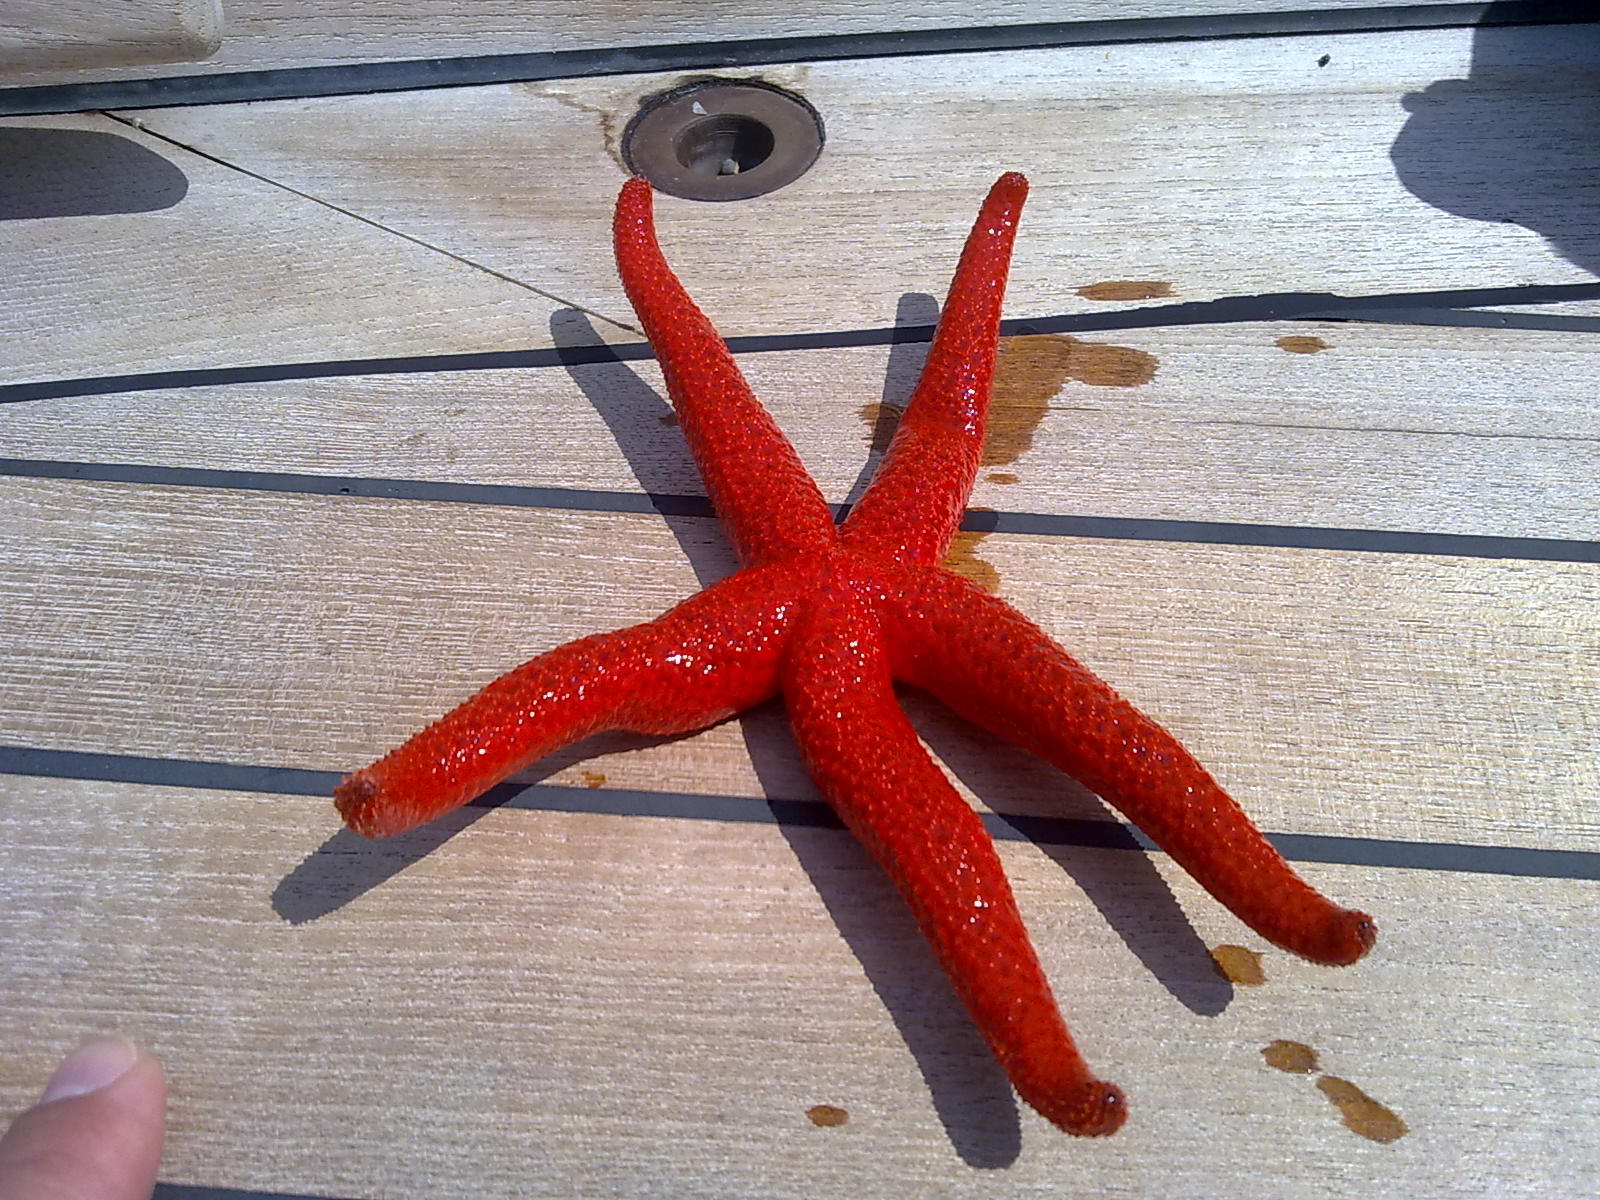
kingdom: Animalia
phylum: Echinodermata
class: Asteroidea
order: Spinulosida
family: Echinasteridae
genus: Echinaster
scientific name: Echinaster sepositus
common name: Red starfish
